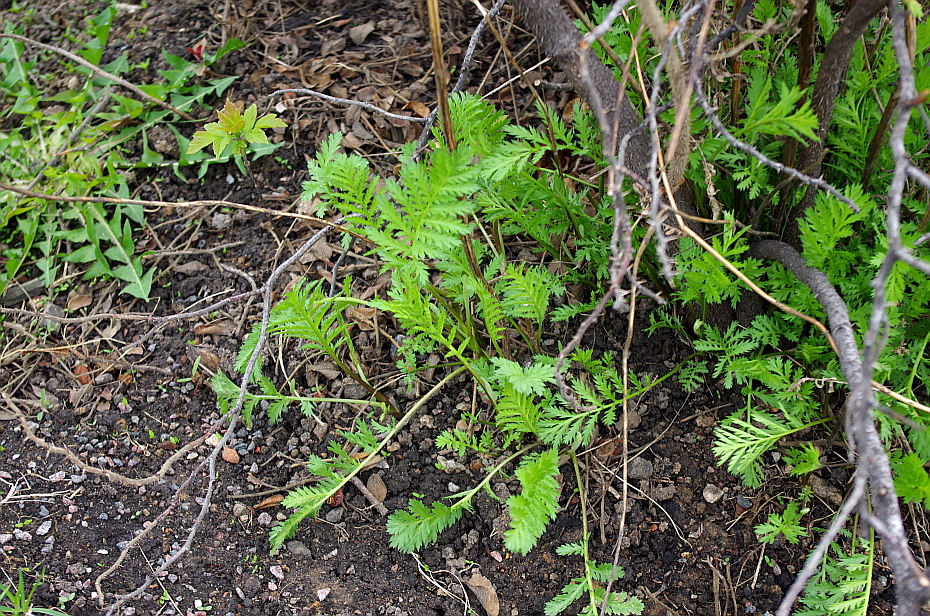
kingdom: Plantae
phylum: Tracheophyta
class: Magnoliopsida
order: Asterales
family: Asteraceae
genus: Tanacetum
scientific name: Tanacetum vulgare
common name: Common tansy
